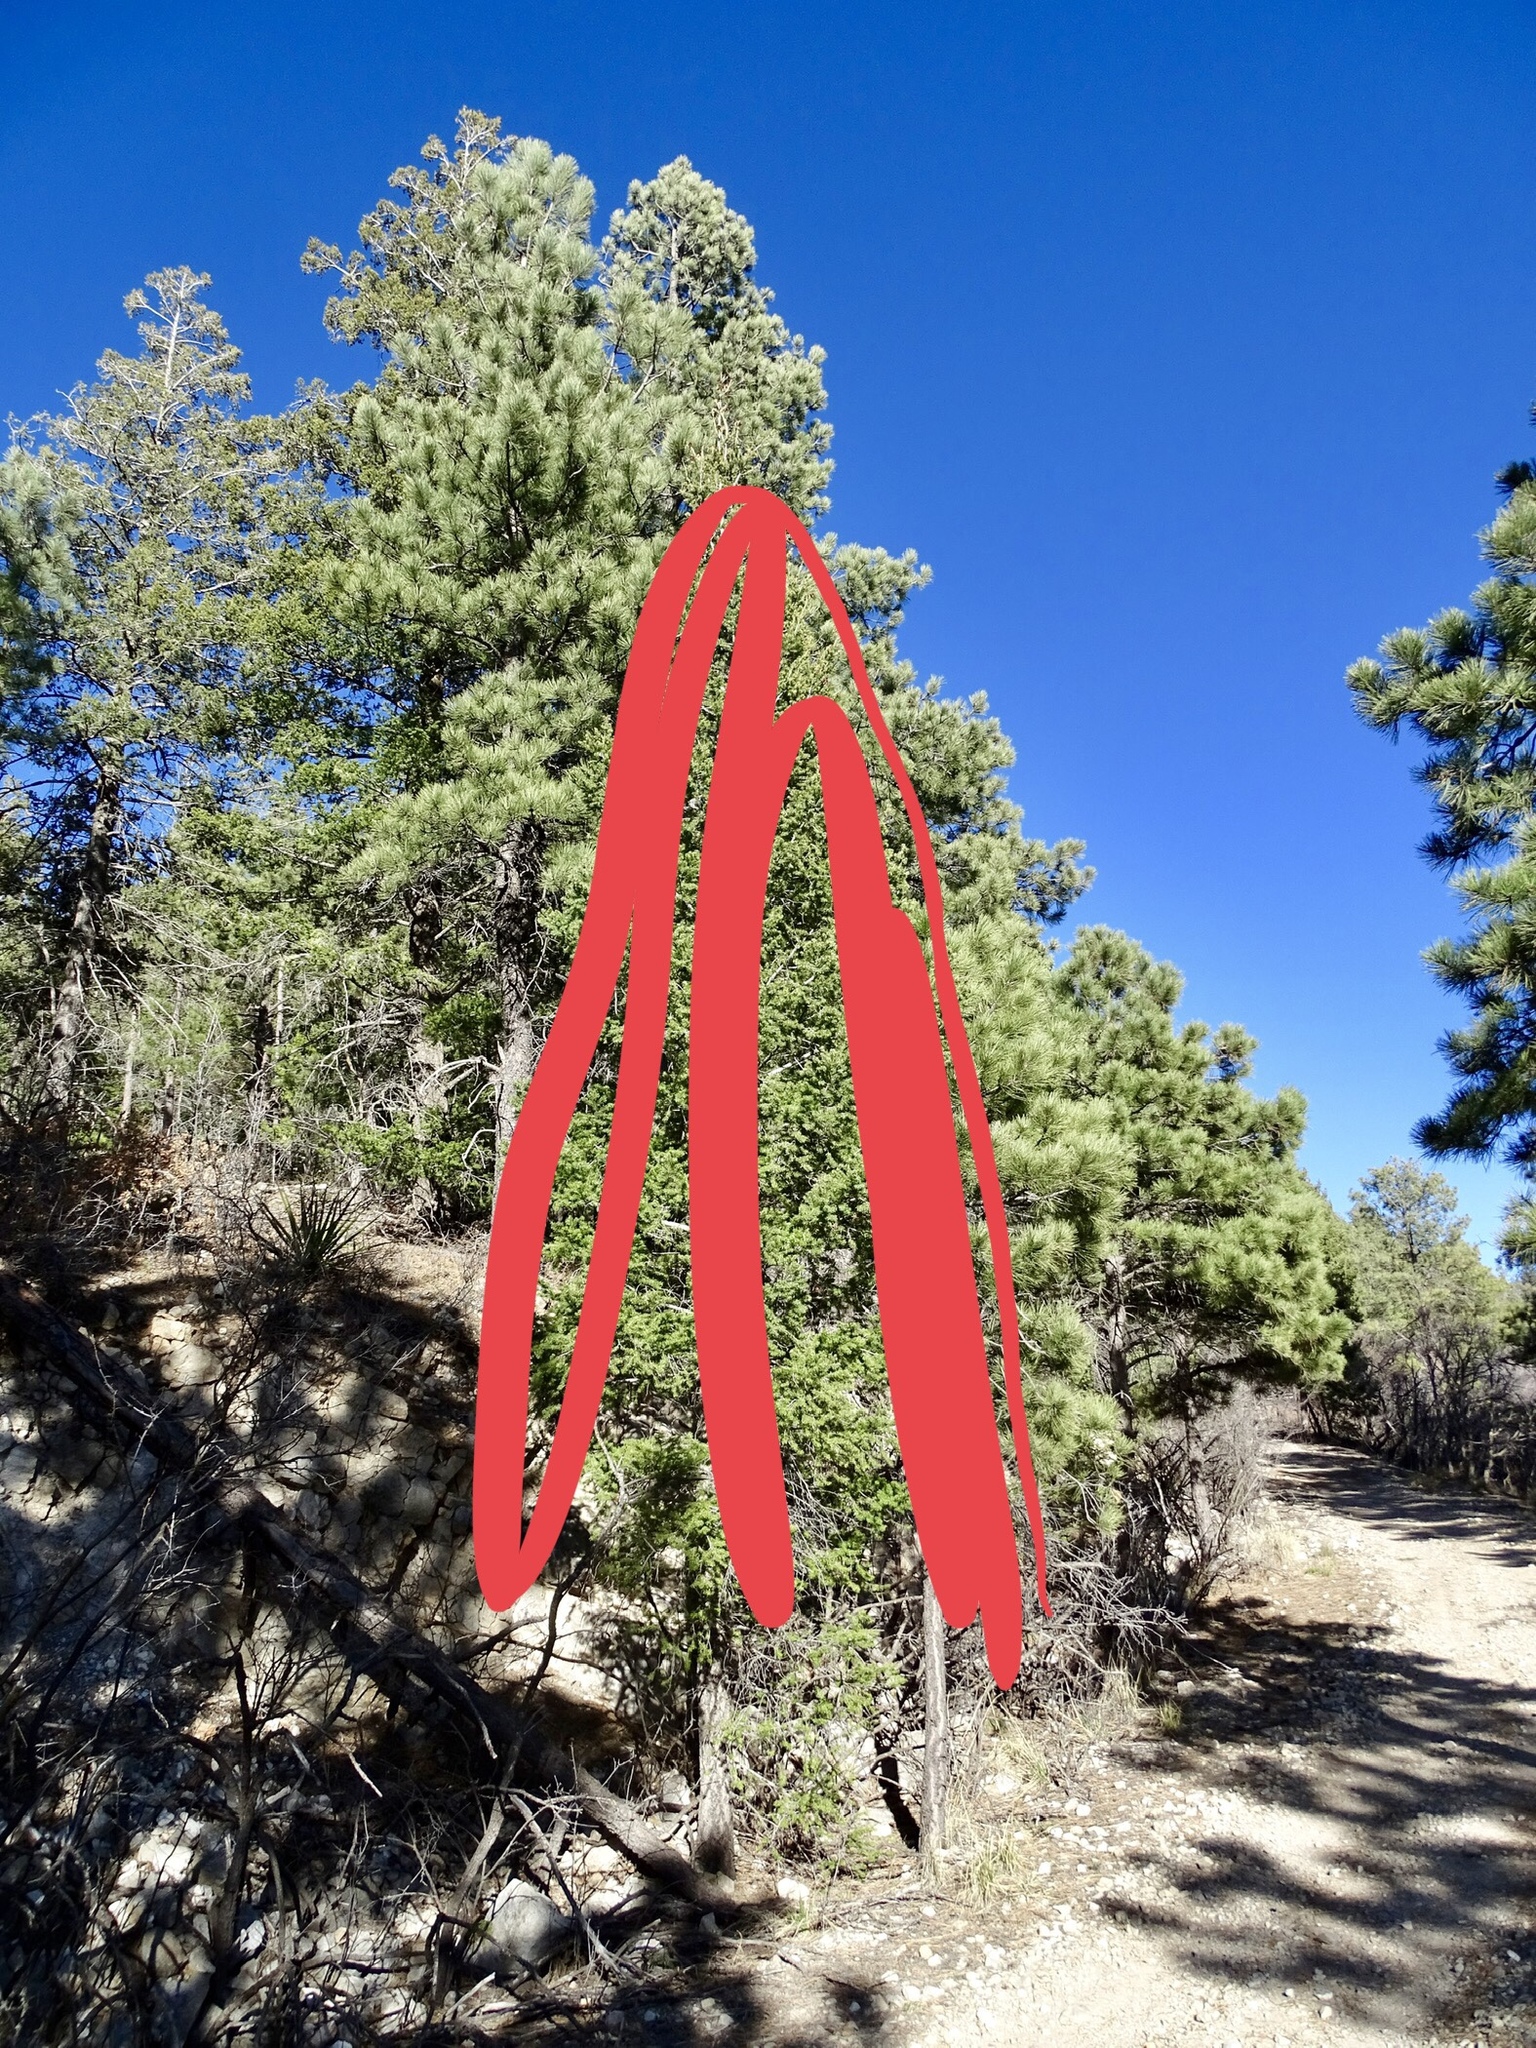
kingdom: Plantae
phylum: Tracheophyta
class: Pinopsida
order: Pinales
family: Pinaceae
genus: Pinus
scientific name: Pinus ponderosa
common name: Western yellow-pine
